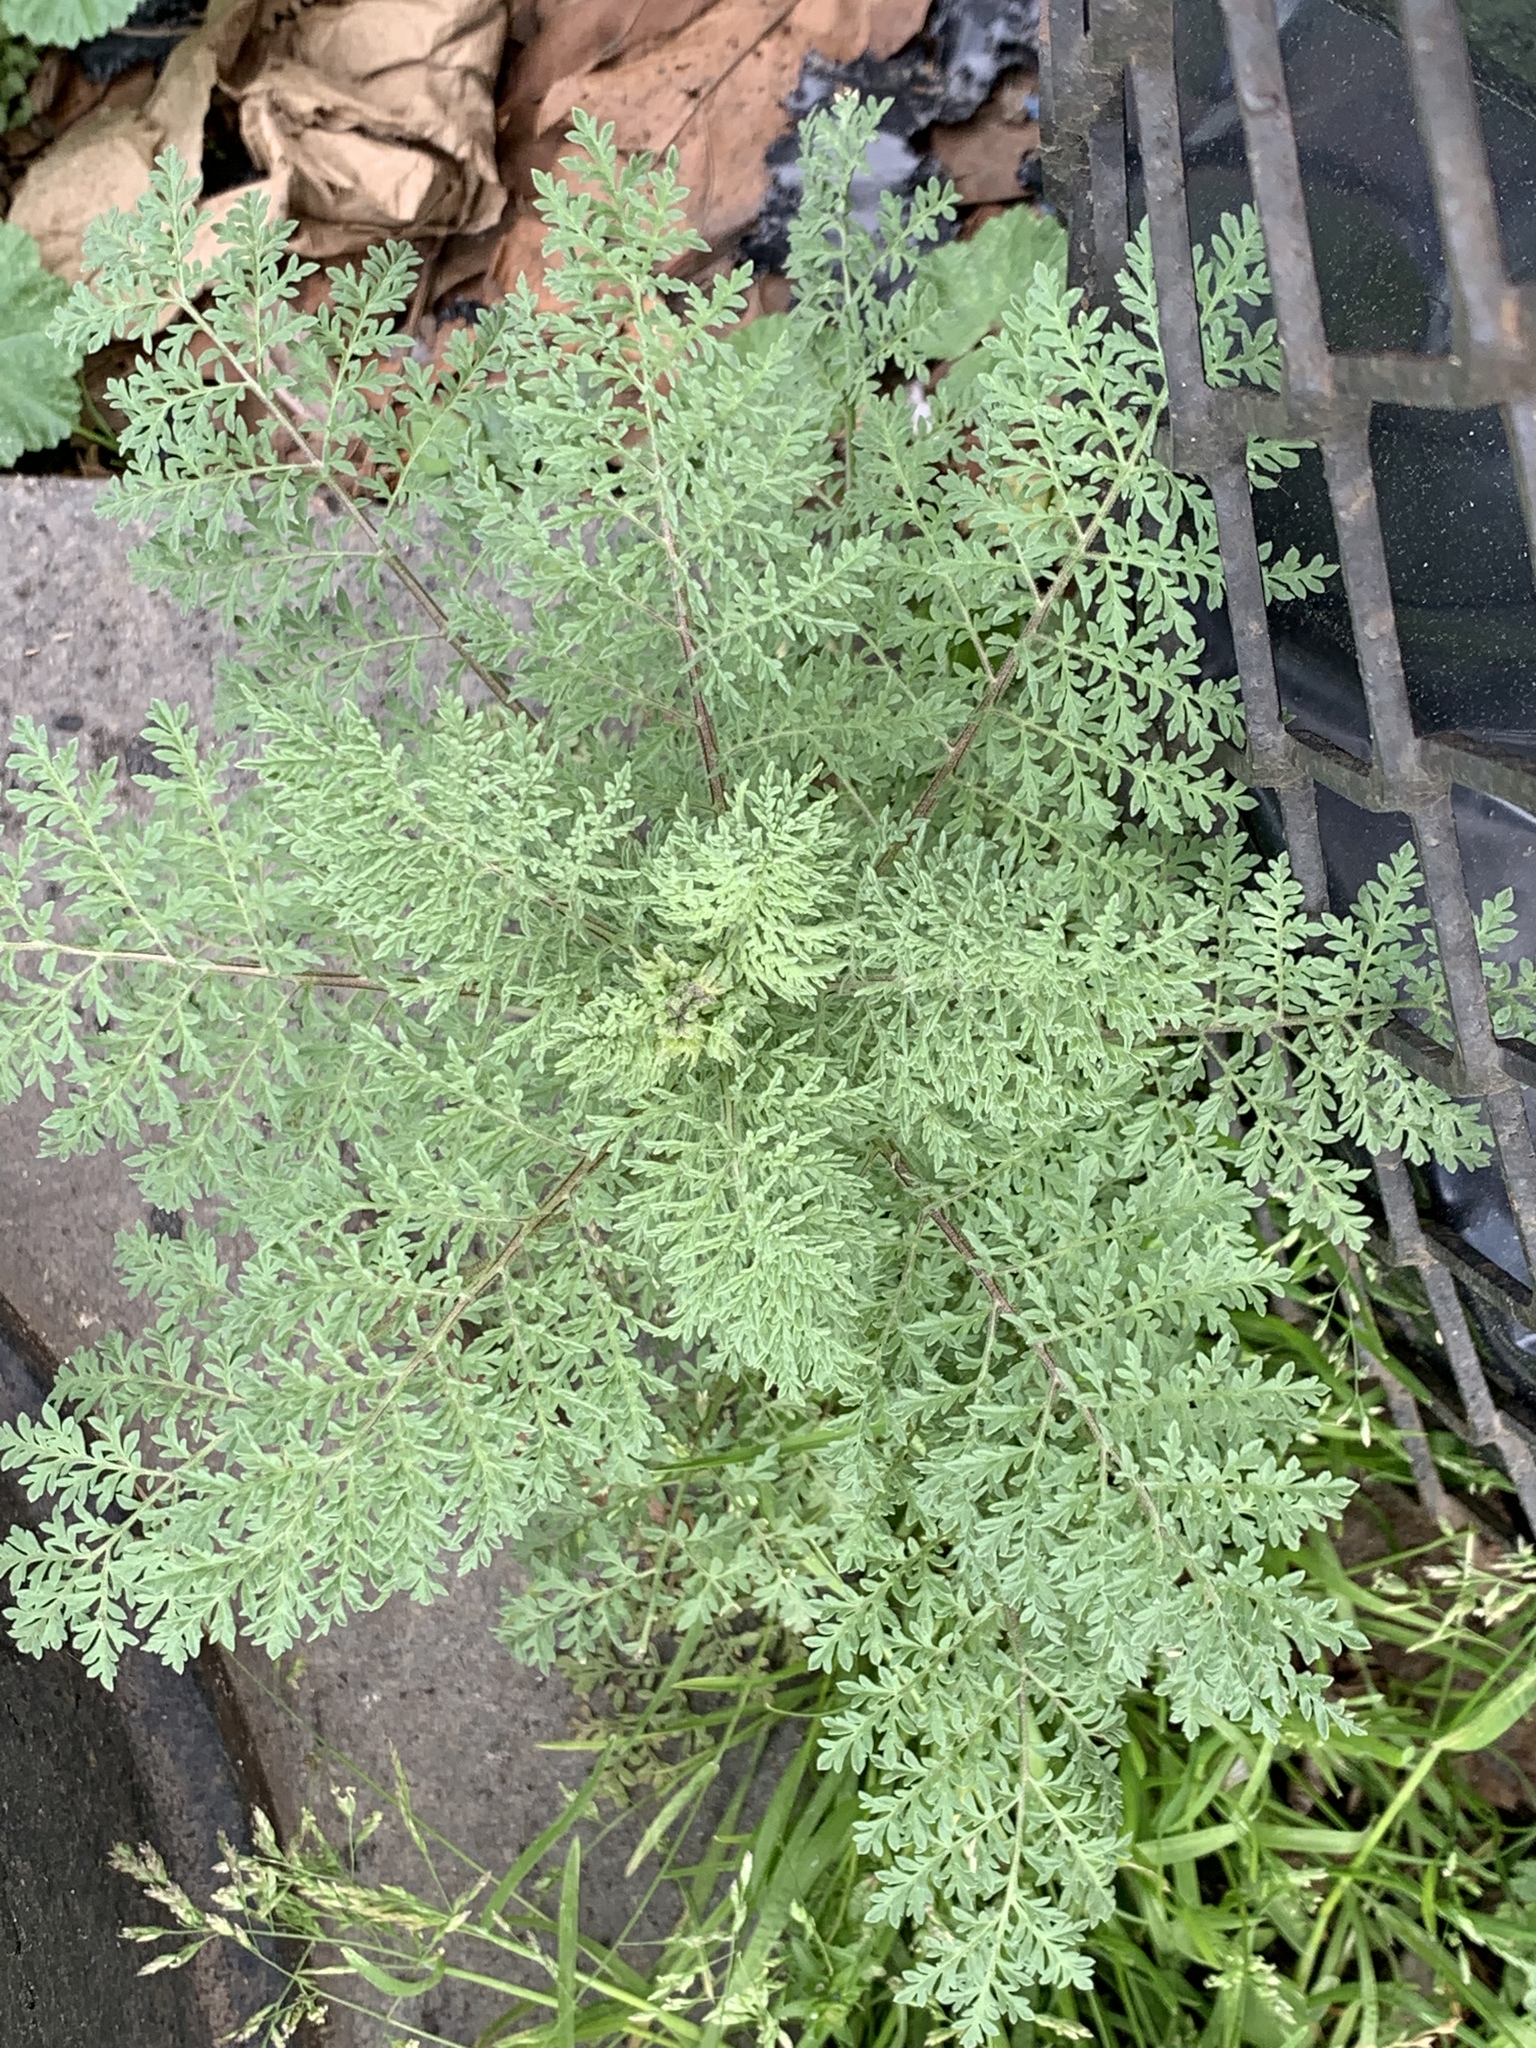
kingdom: Plantae
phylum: Tracheophyta
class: Magnoliopsida
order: Brassicales
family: Brassicaceae
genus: Descurainia
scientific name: Descurainia sophia
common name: Flixweed
